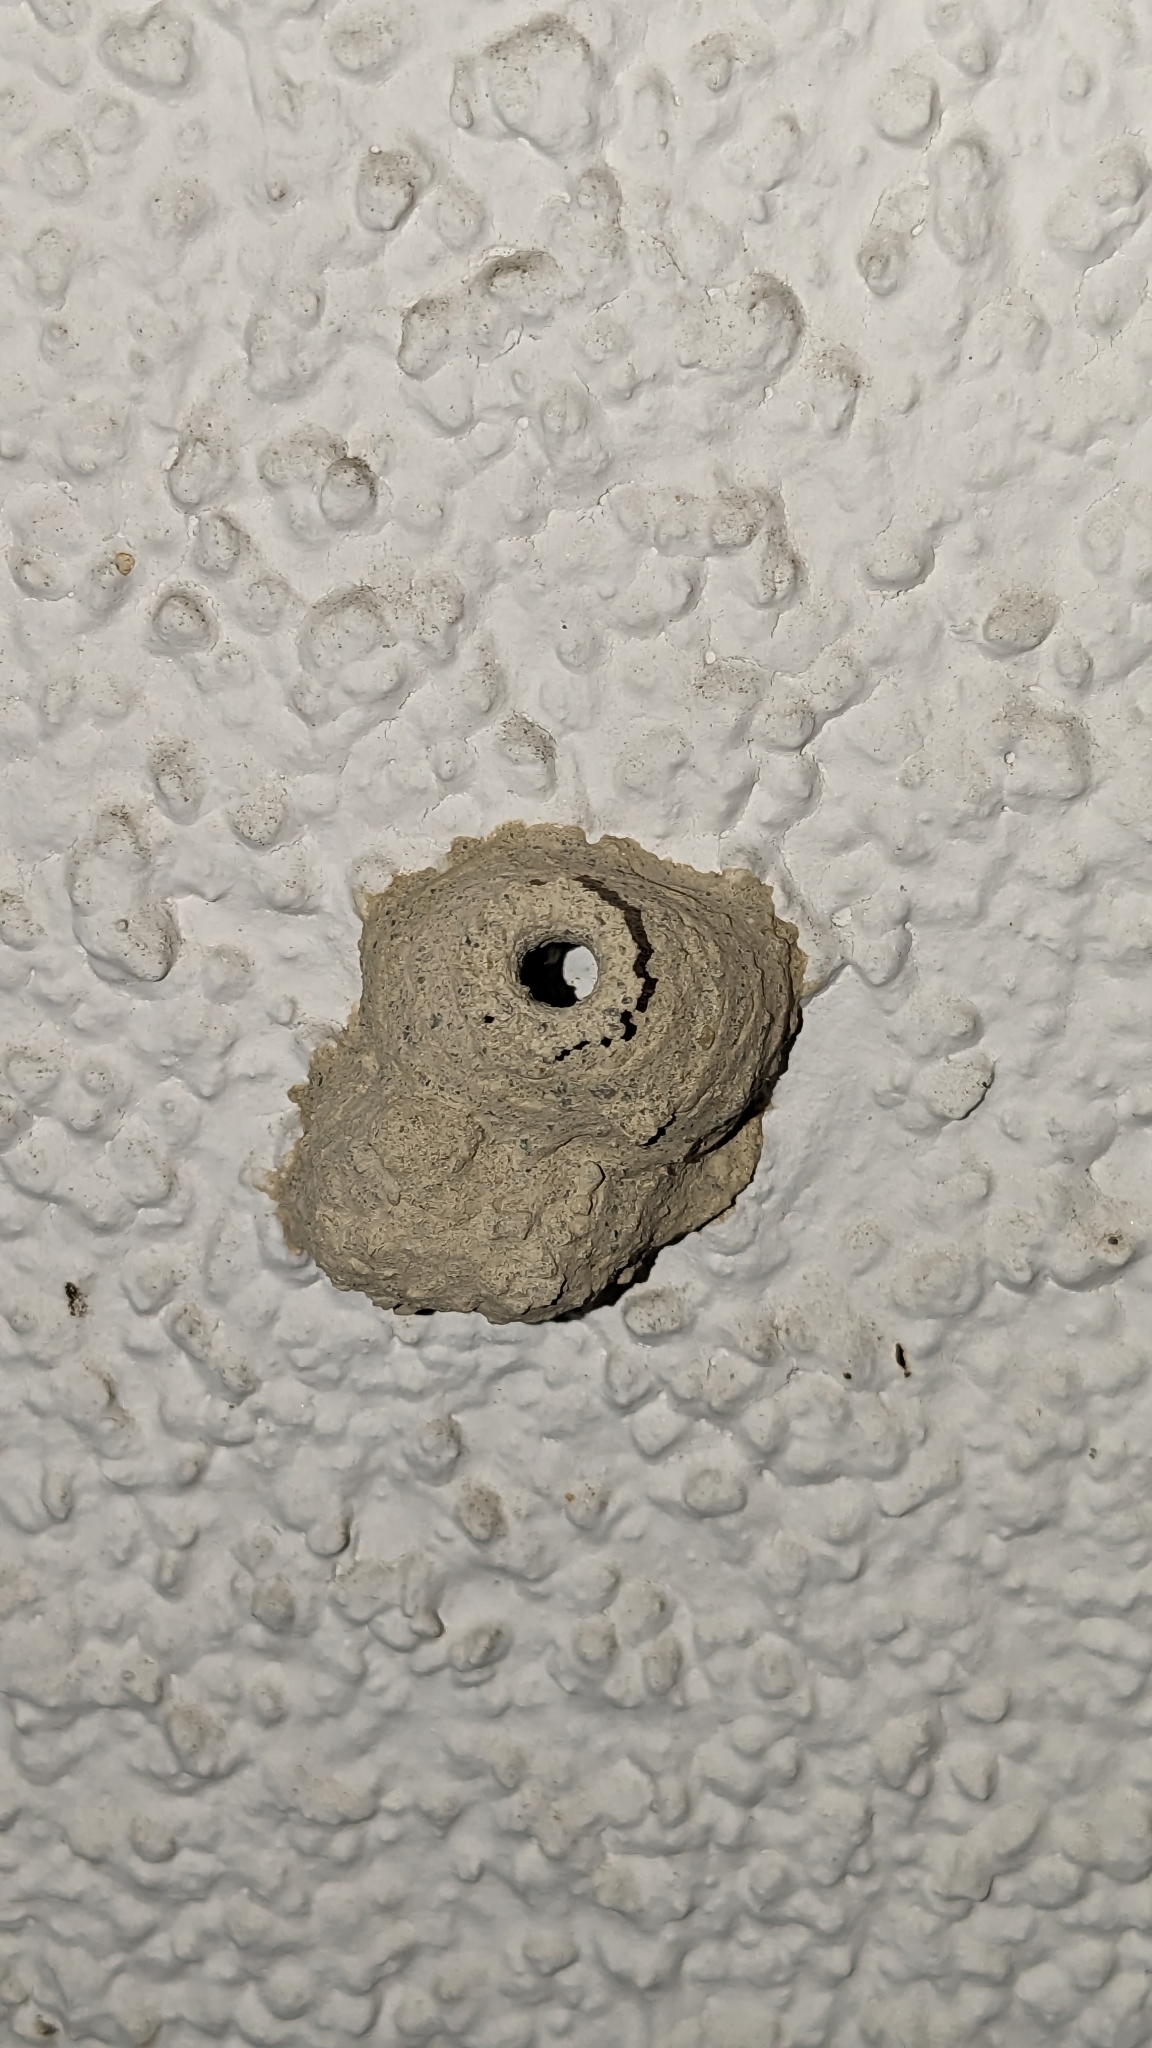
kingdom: Animalia
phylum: Arthropoda
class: Insecta
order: Hymenoptera
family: Eumenidae
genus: Delta
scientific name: Delta unguiculatum
